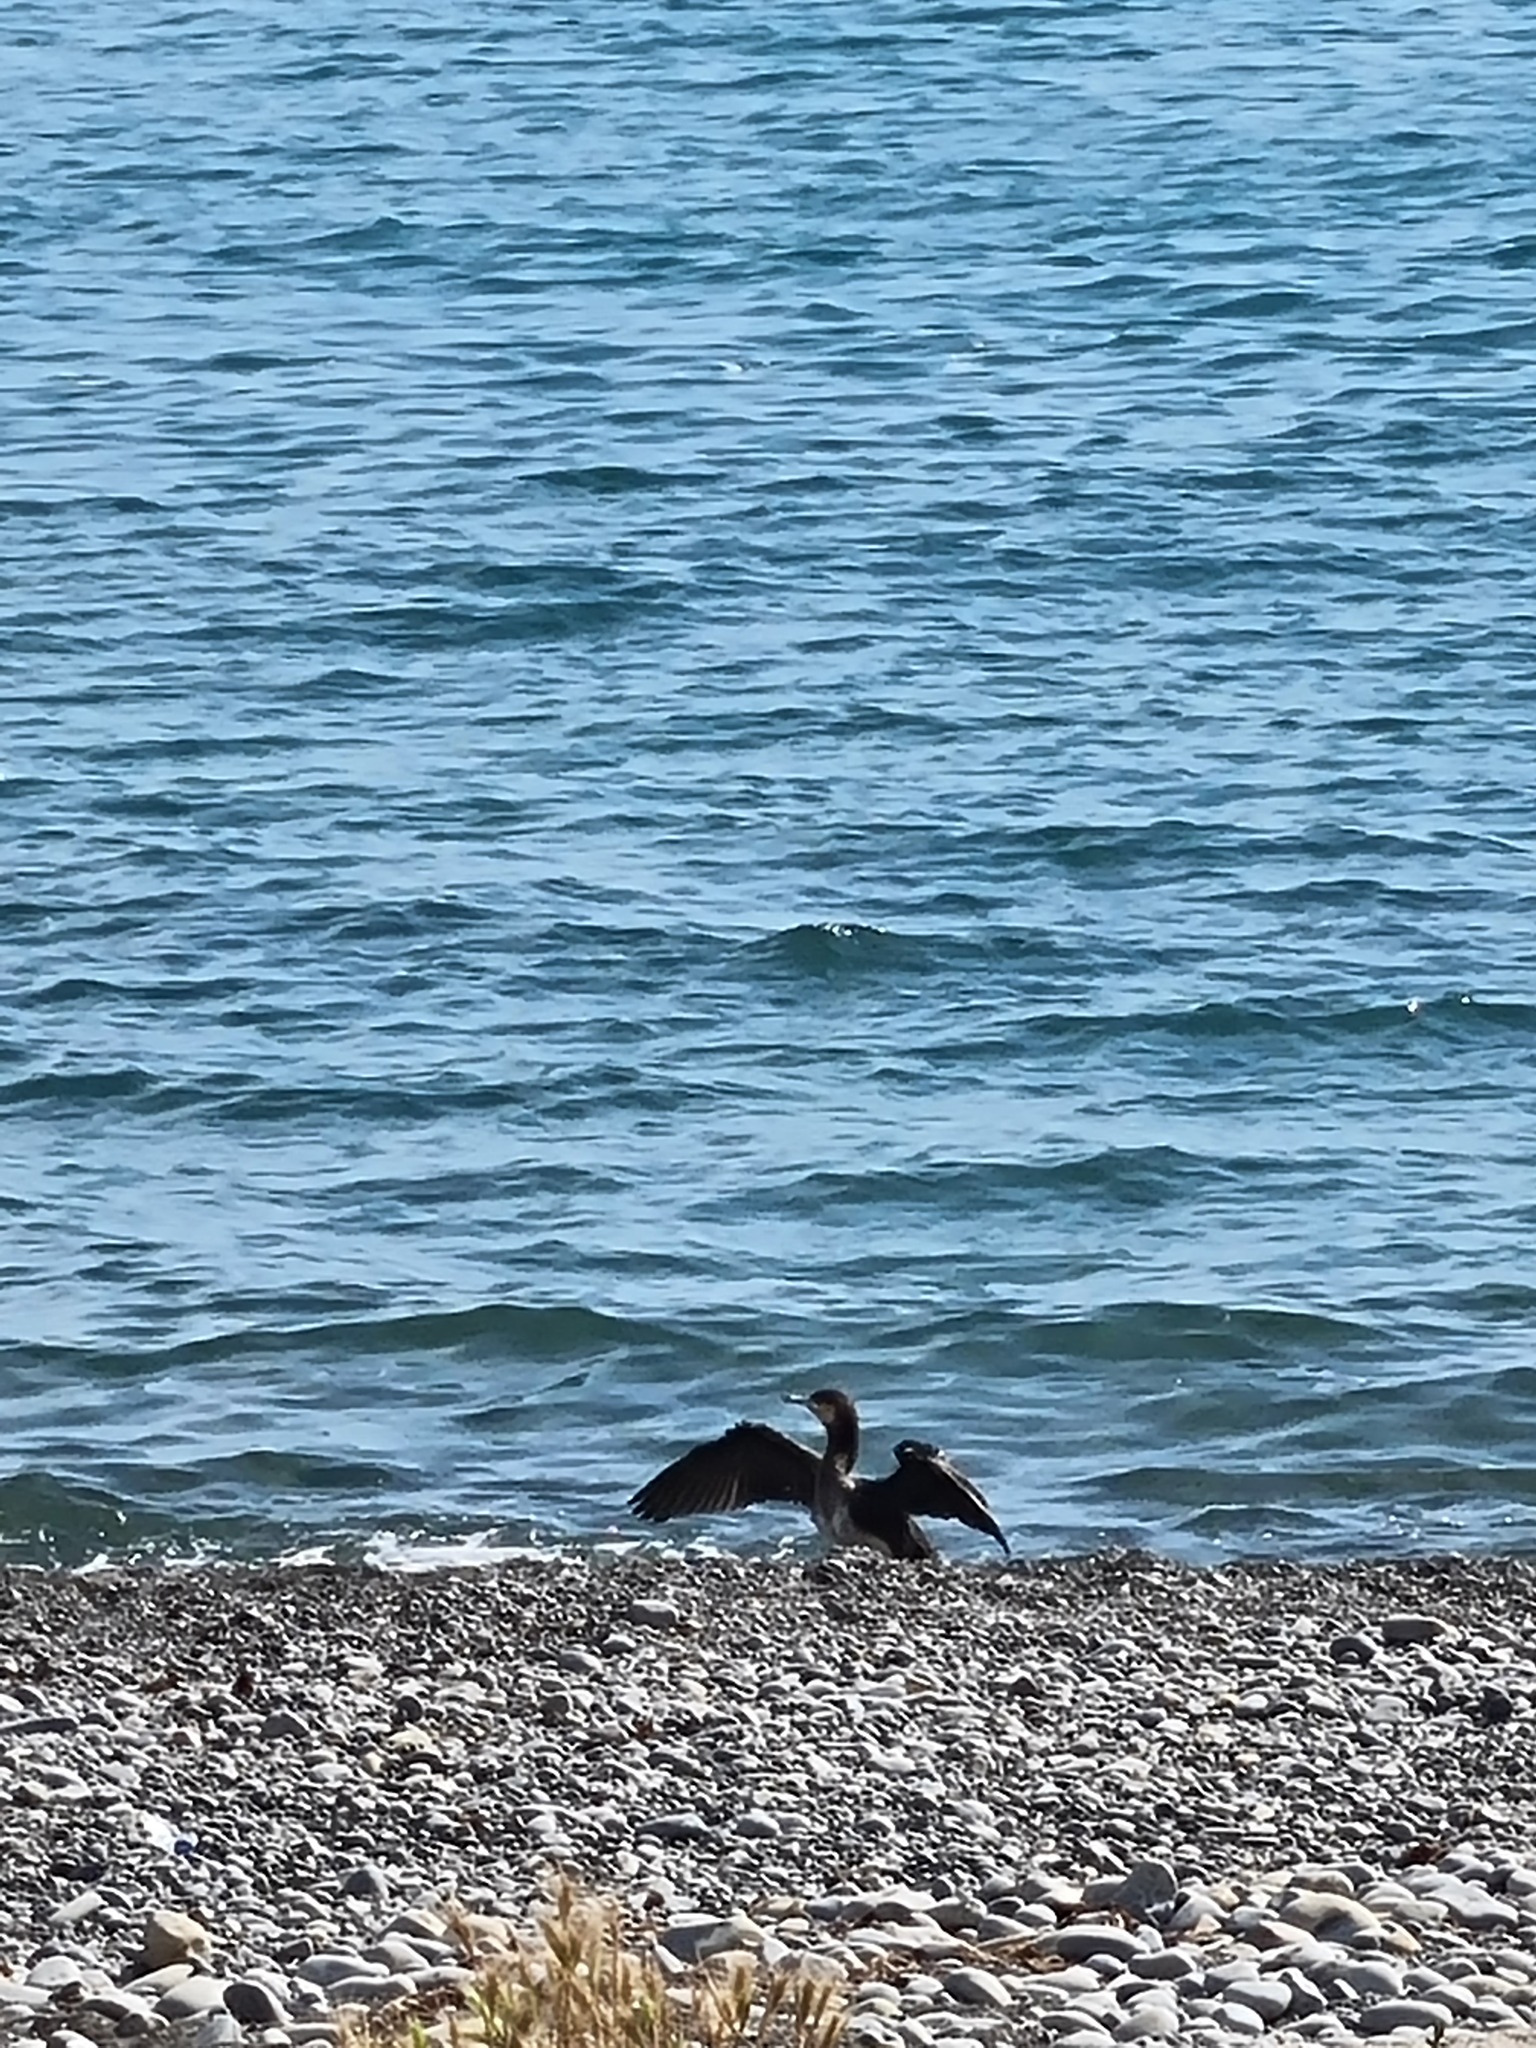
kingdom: Animalia
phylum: Chordata
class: Aves
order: Suliformes
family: Phalacrocoracidae
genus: Phalacrocorax
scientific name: Phalacrocorax carbo
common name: Great cormorant
